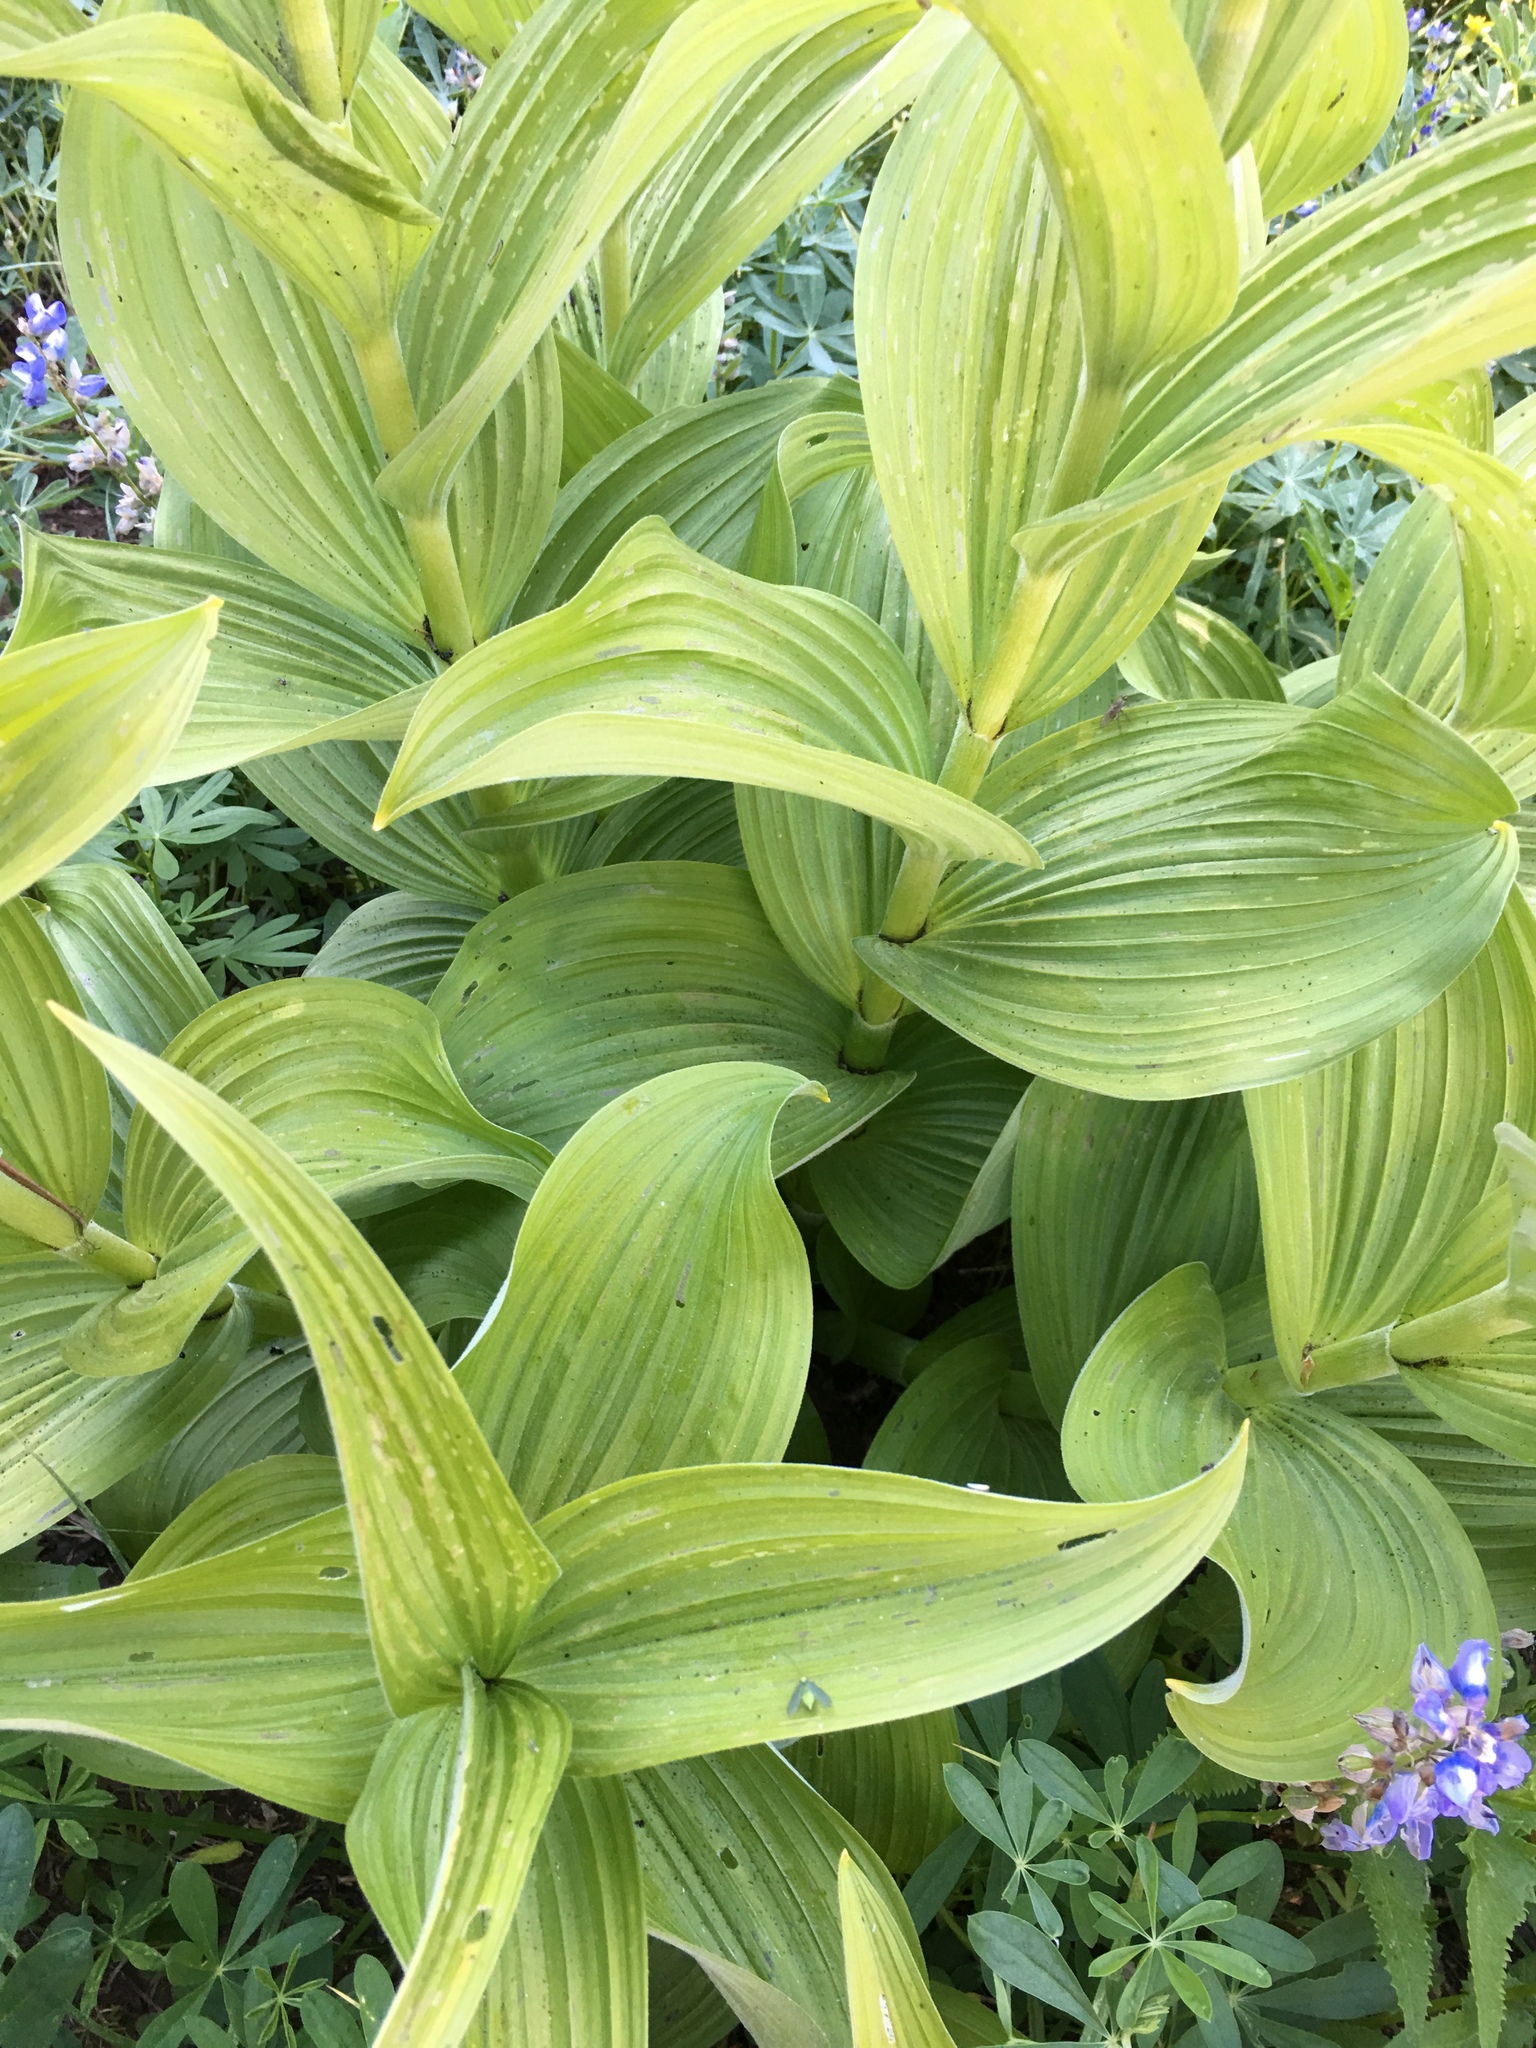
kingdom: Plantae
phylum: Tracheophyta
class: Liliopsida
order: Liliales
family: Melanthiaceae
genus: Veratrum
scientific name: Veratrum viride
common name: American false hellebore
